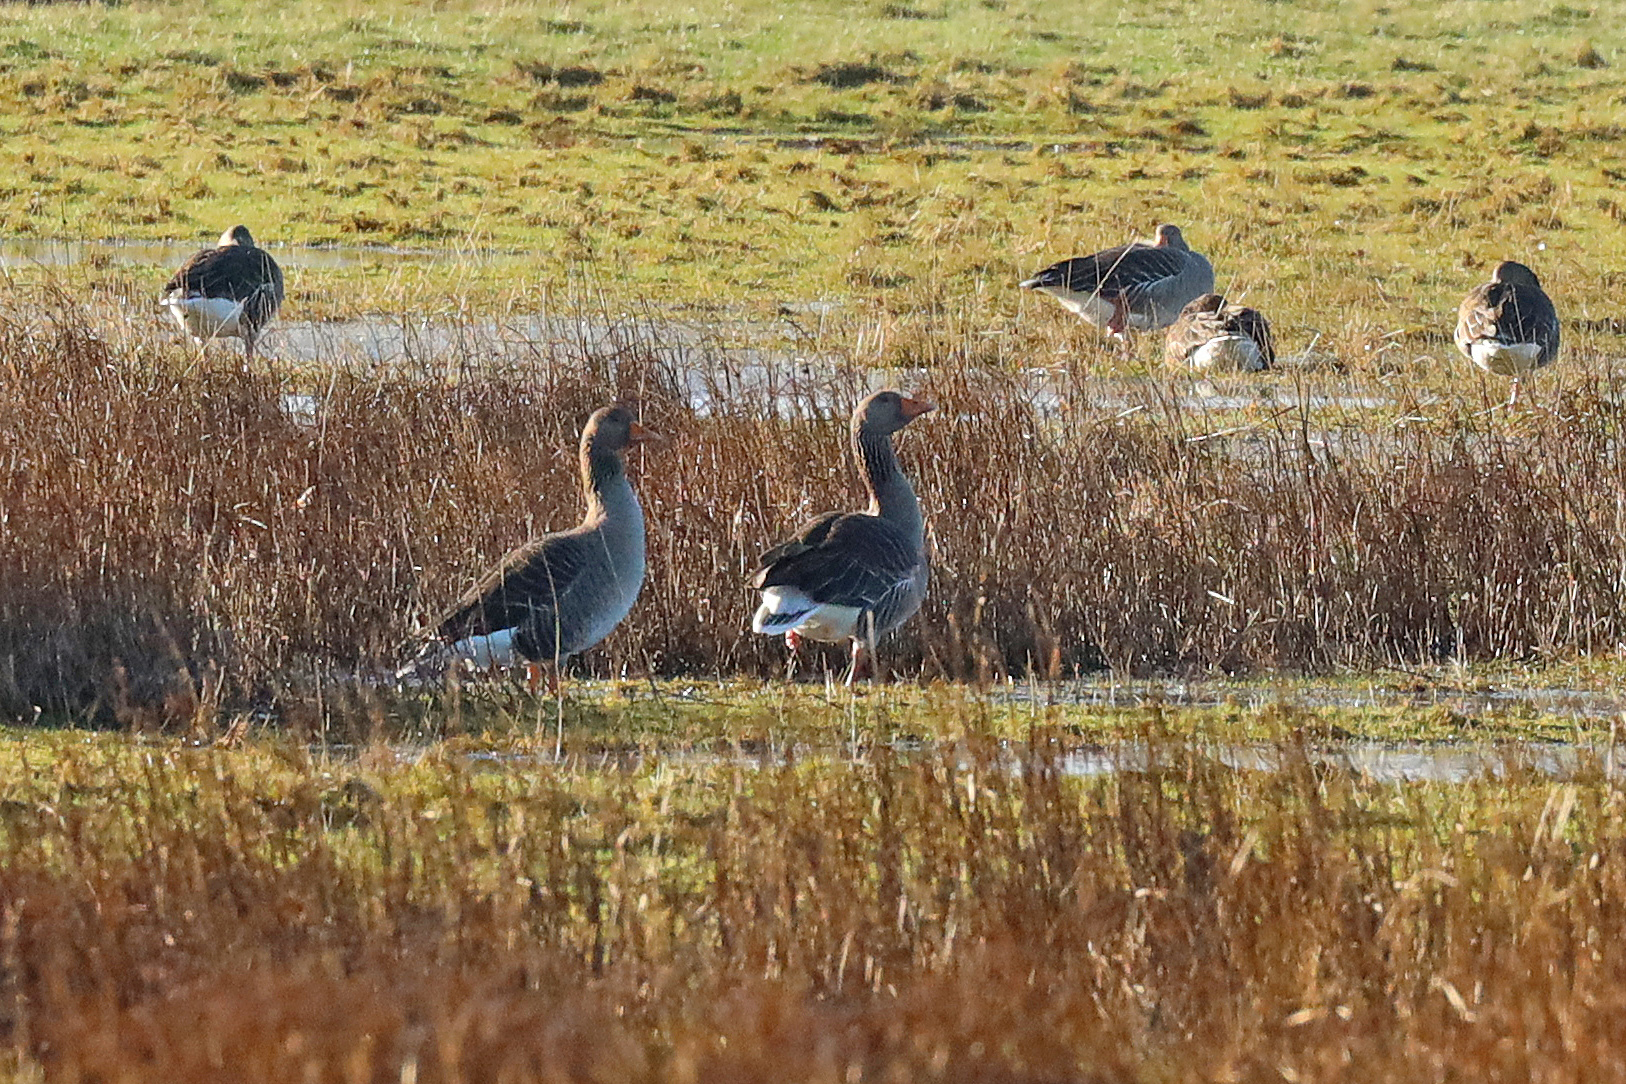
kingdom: Animalia
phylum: Chordata
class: Aves
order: Anseriformes
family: Anatidae
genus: Anser
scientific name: Anser anser
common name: Greylag goose
